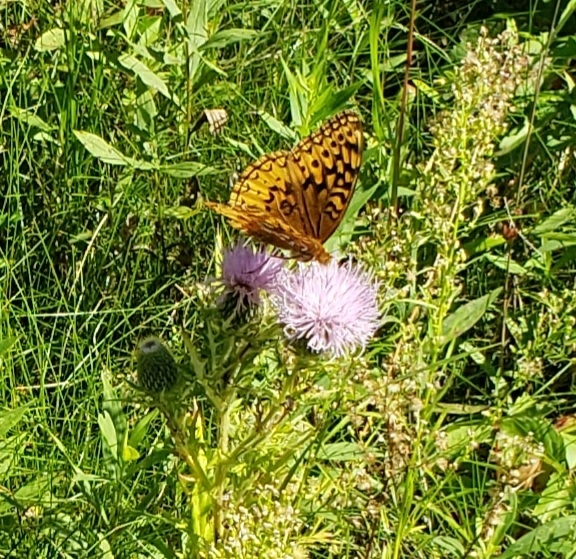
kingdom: Animalia
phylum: Arthropoda
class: Insecta
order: Lepidoptera
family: Nymphalidae
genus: Speyeria
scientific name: Speyeria cybele
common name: Great spangled fritillary
